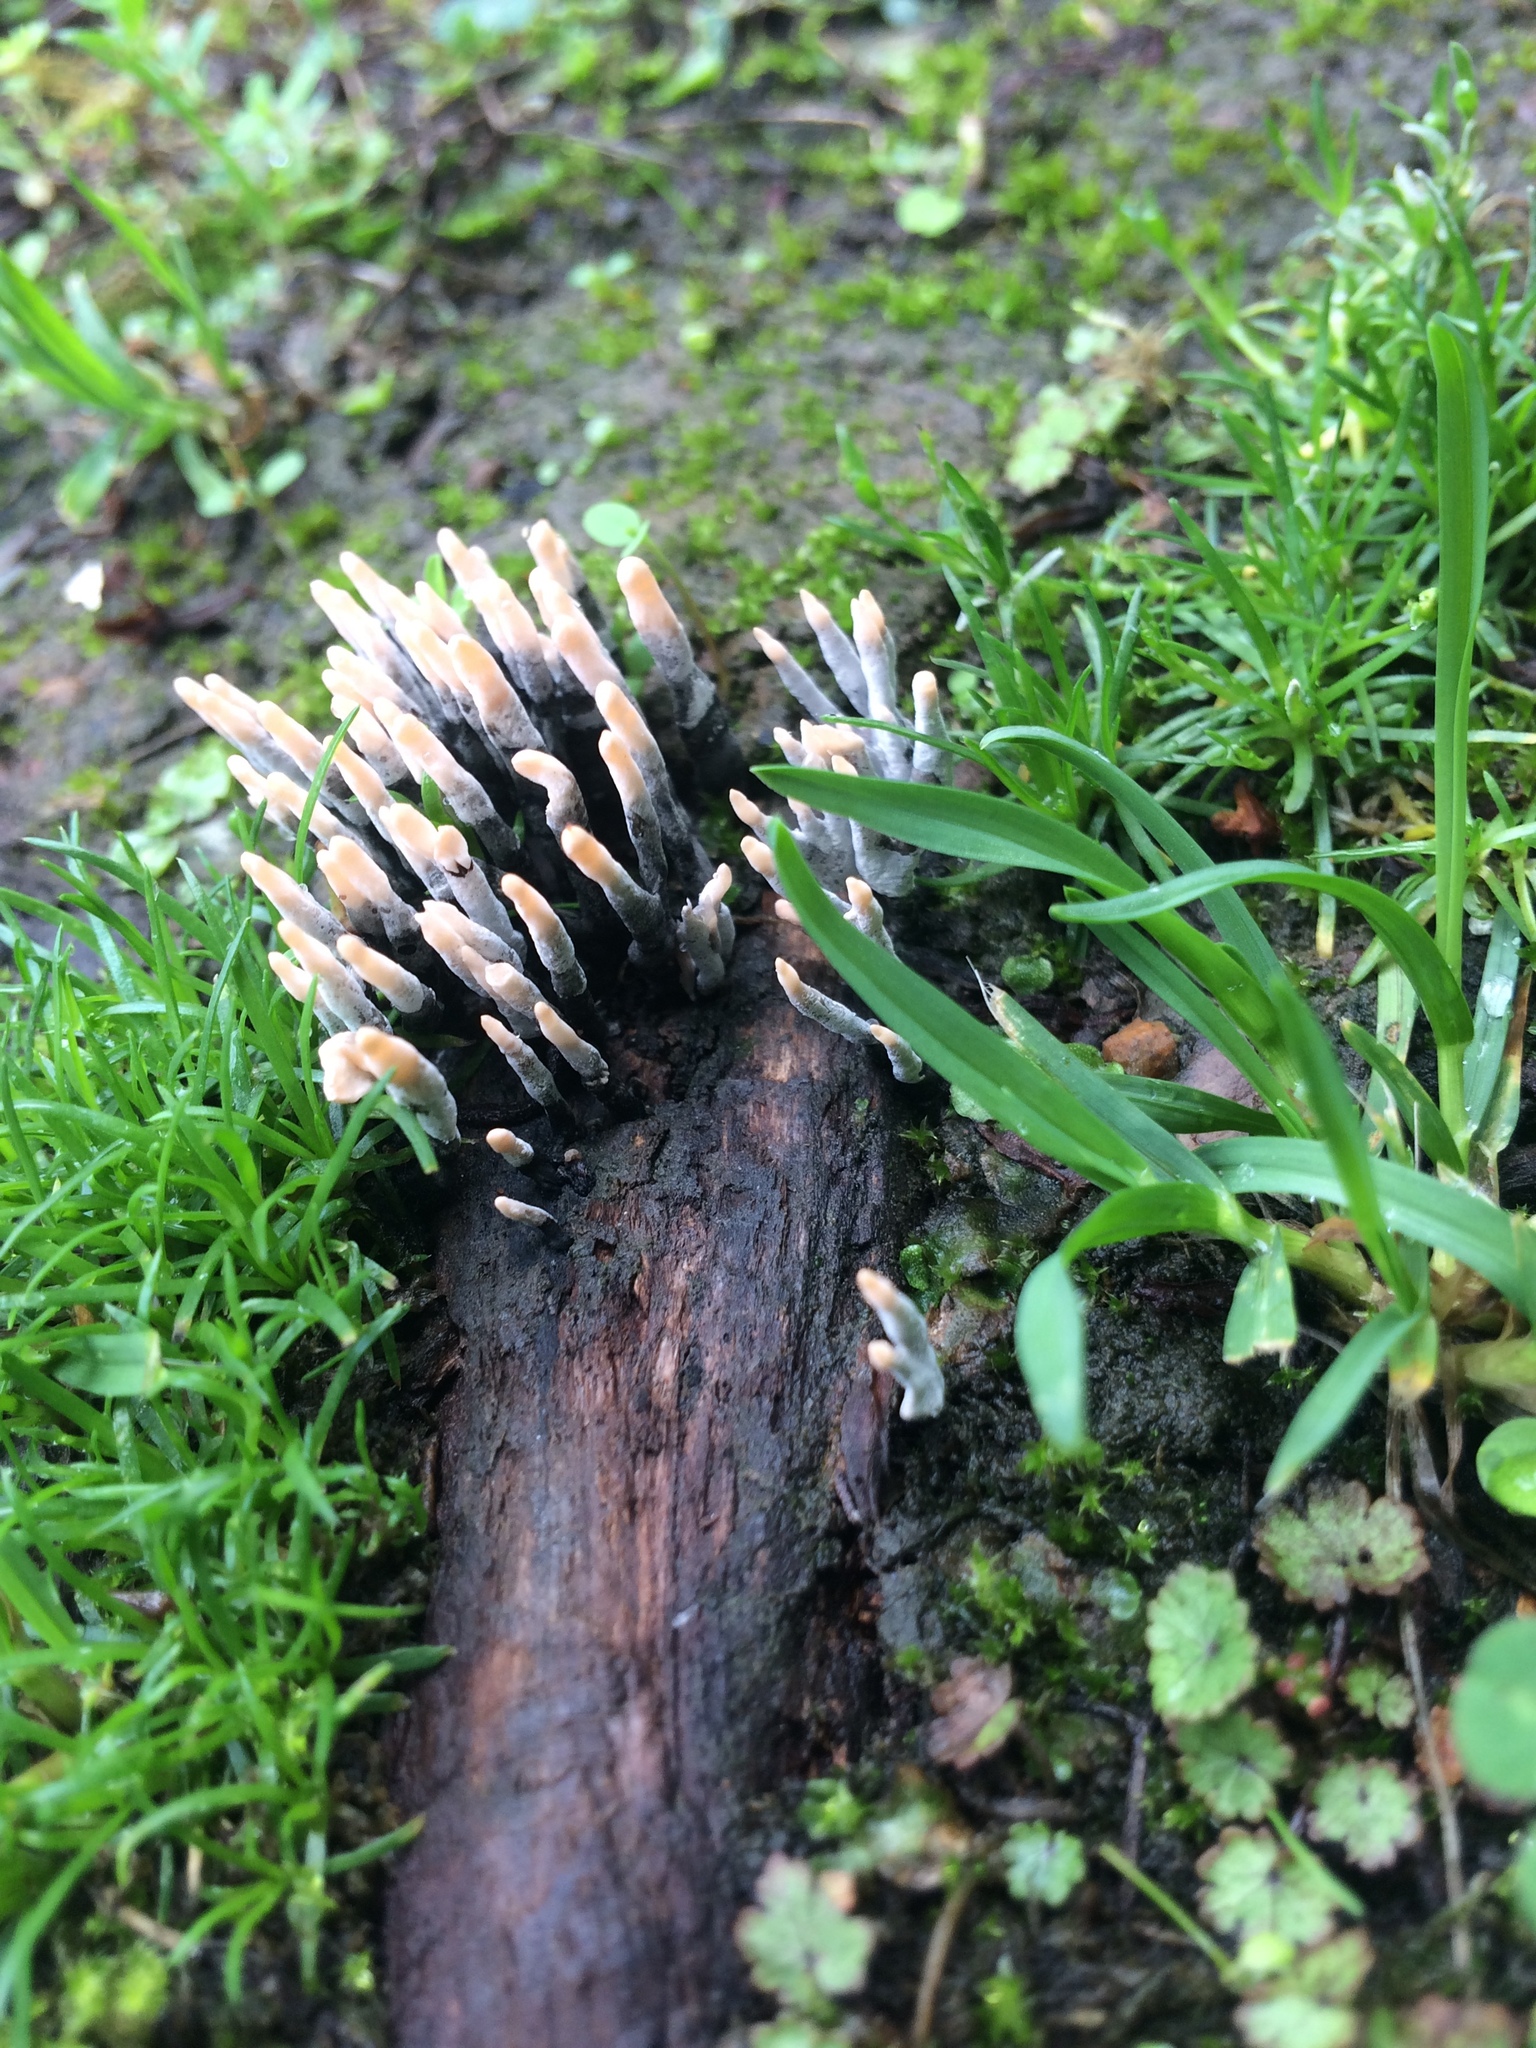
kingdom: Fungi
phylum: Ascomycota
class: Sordariomycetes
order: Xylariales
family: Xylariaceae
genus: Xylaria
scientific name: Xylaria hypoxylon
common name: Candle-snuff fungus
